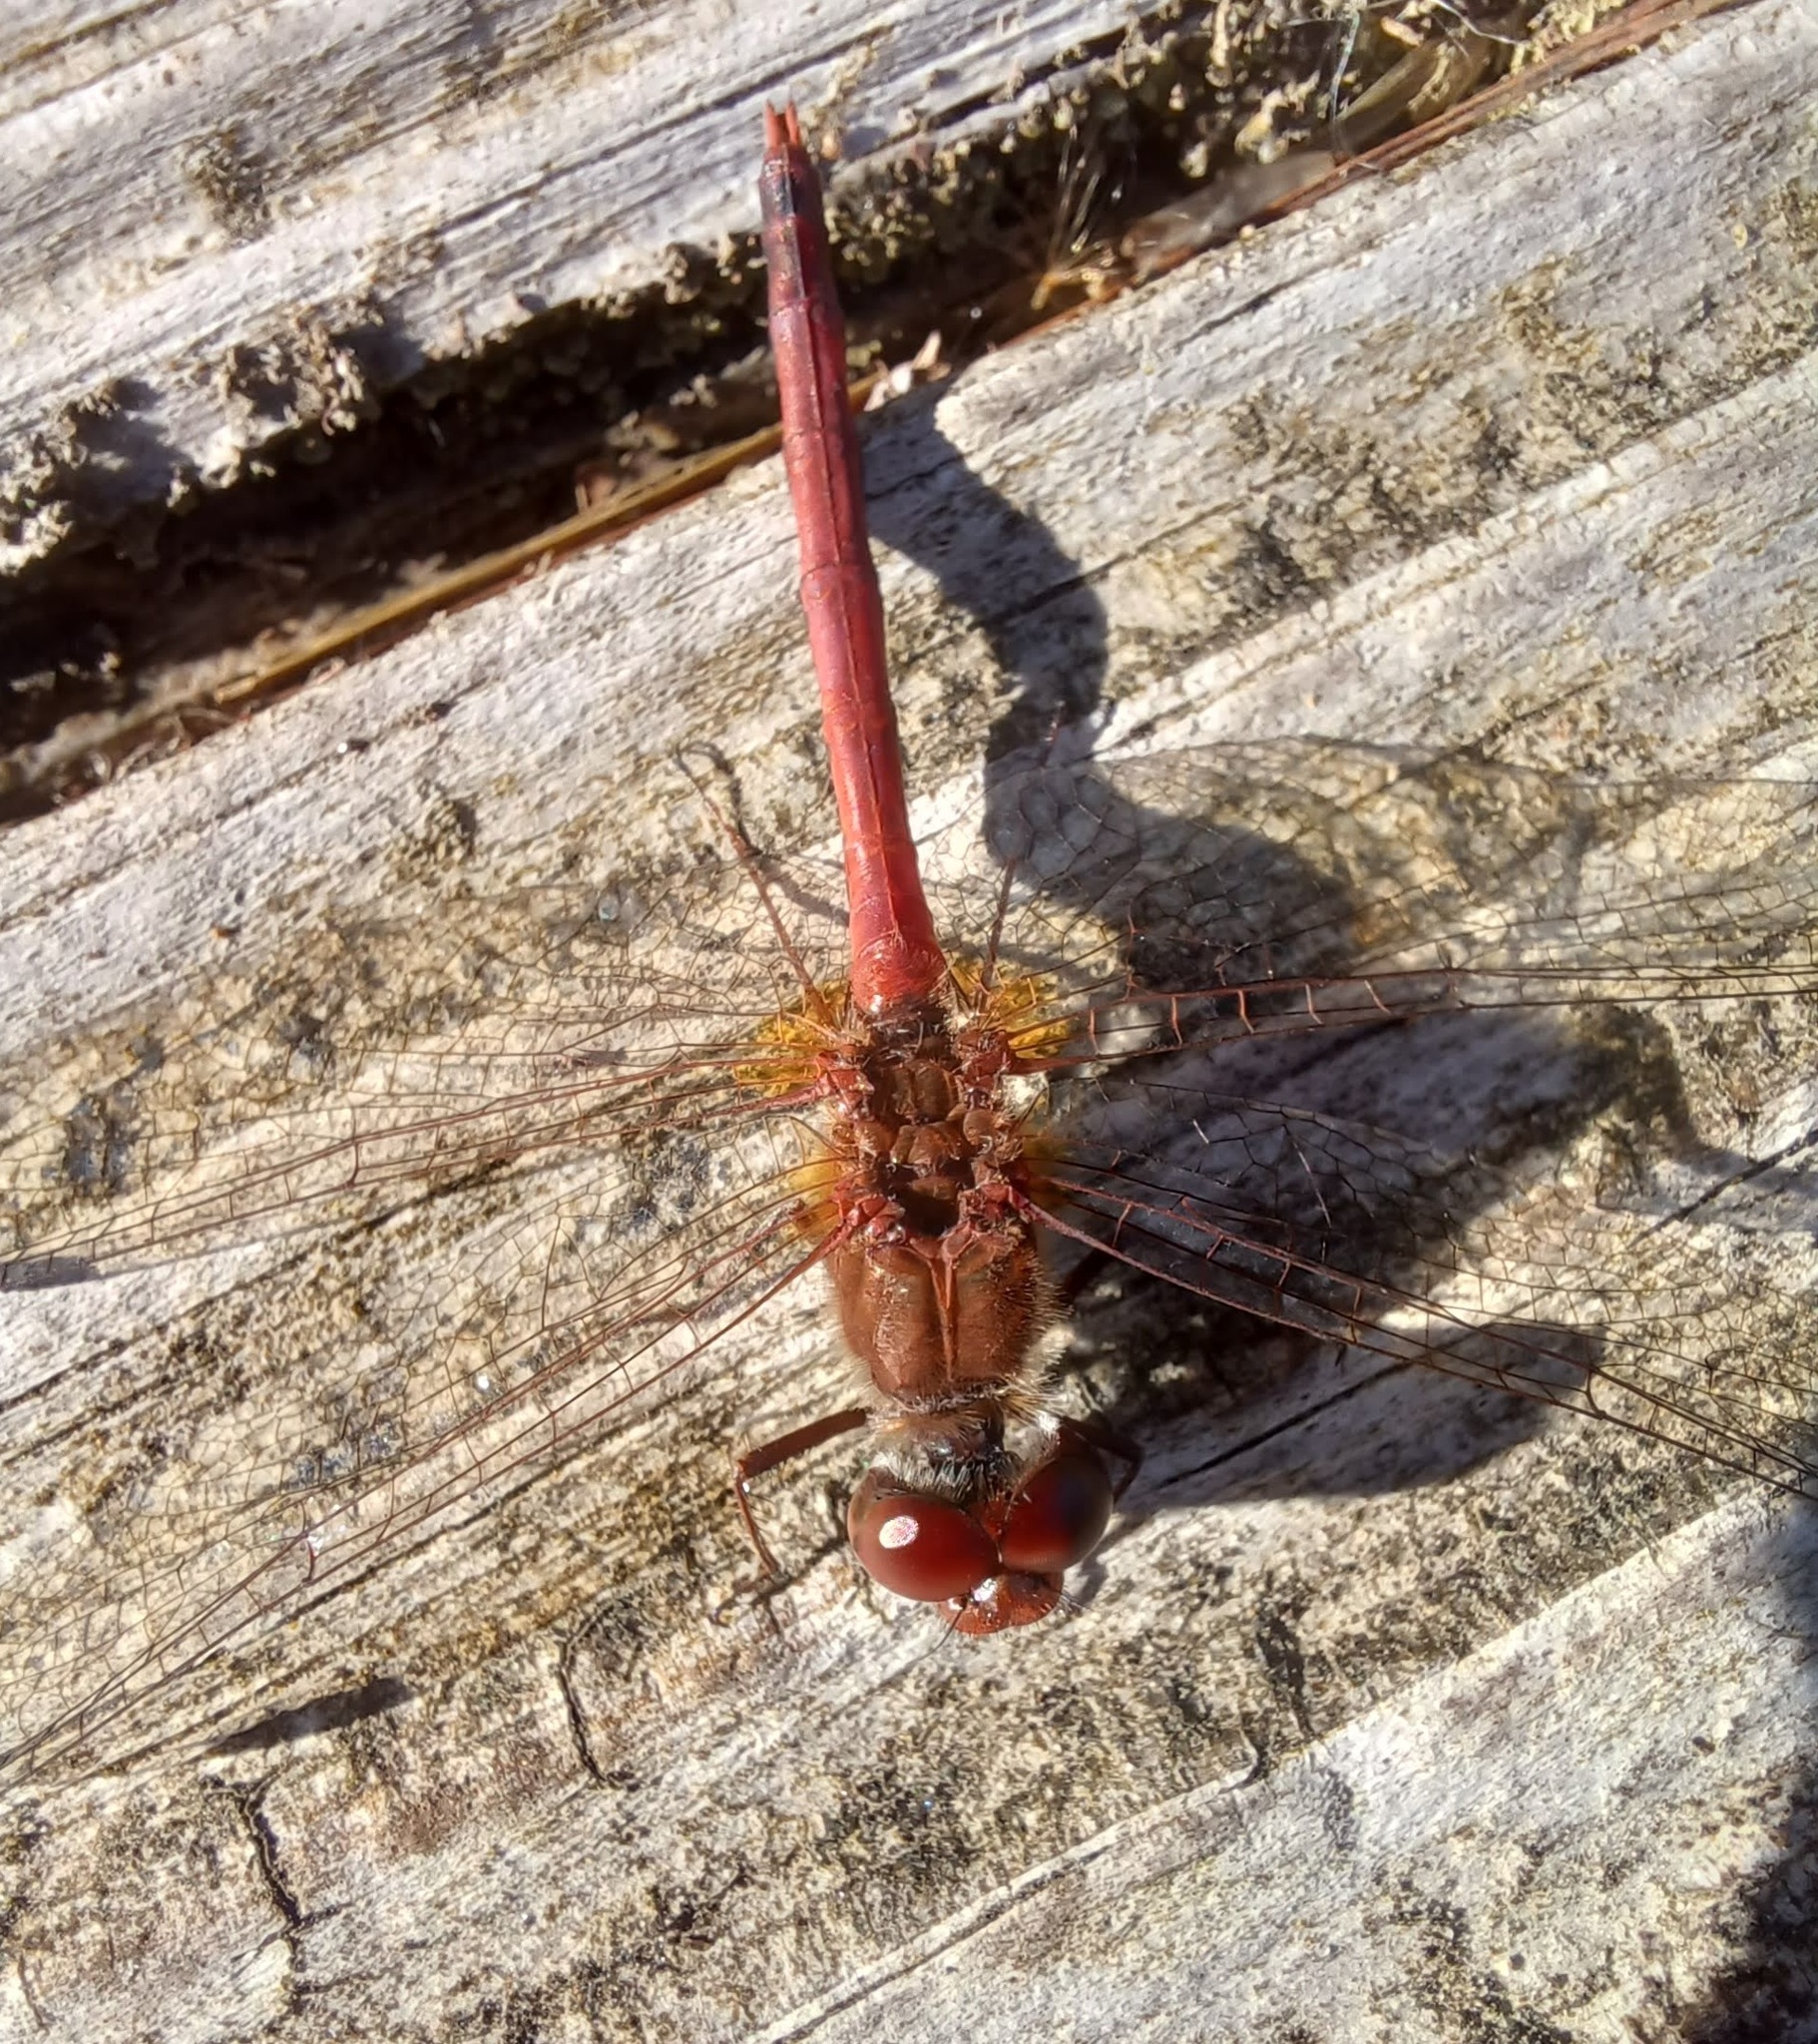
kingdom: Animalia
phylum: Arthropoda
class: Insecta
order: Odonata
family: Libellulidae
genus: Sympetrum
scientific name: Sympetrum vicinum
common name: Autumn meadowhawk
